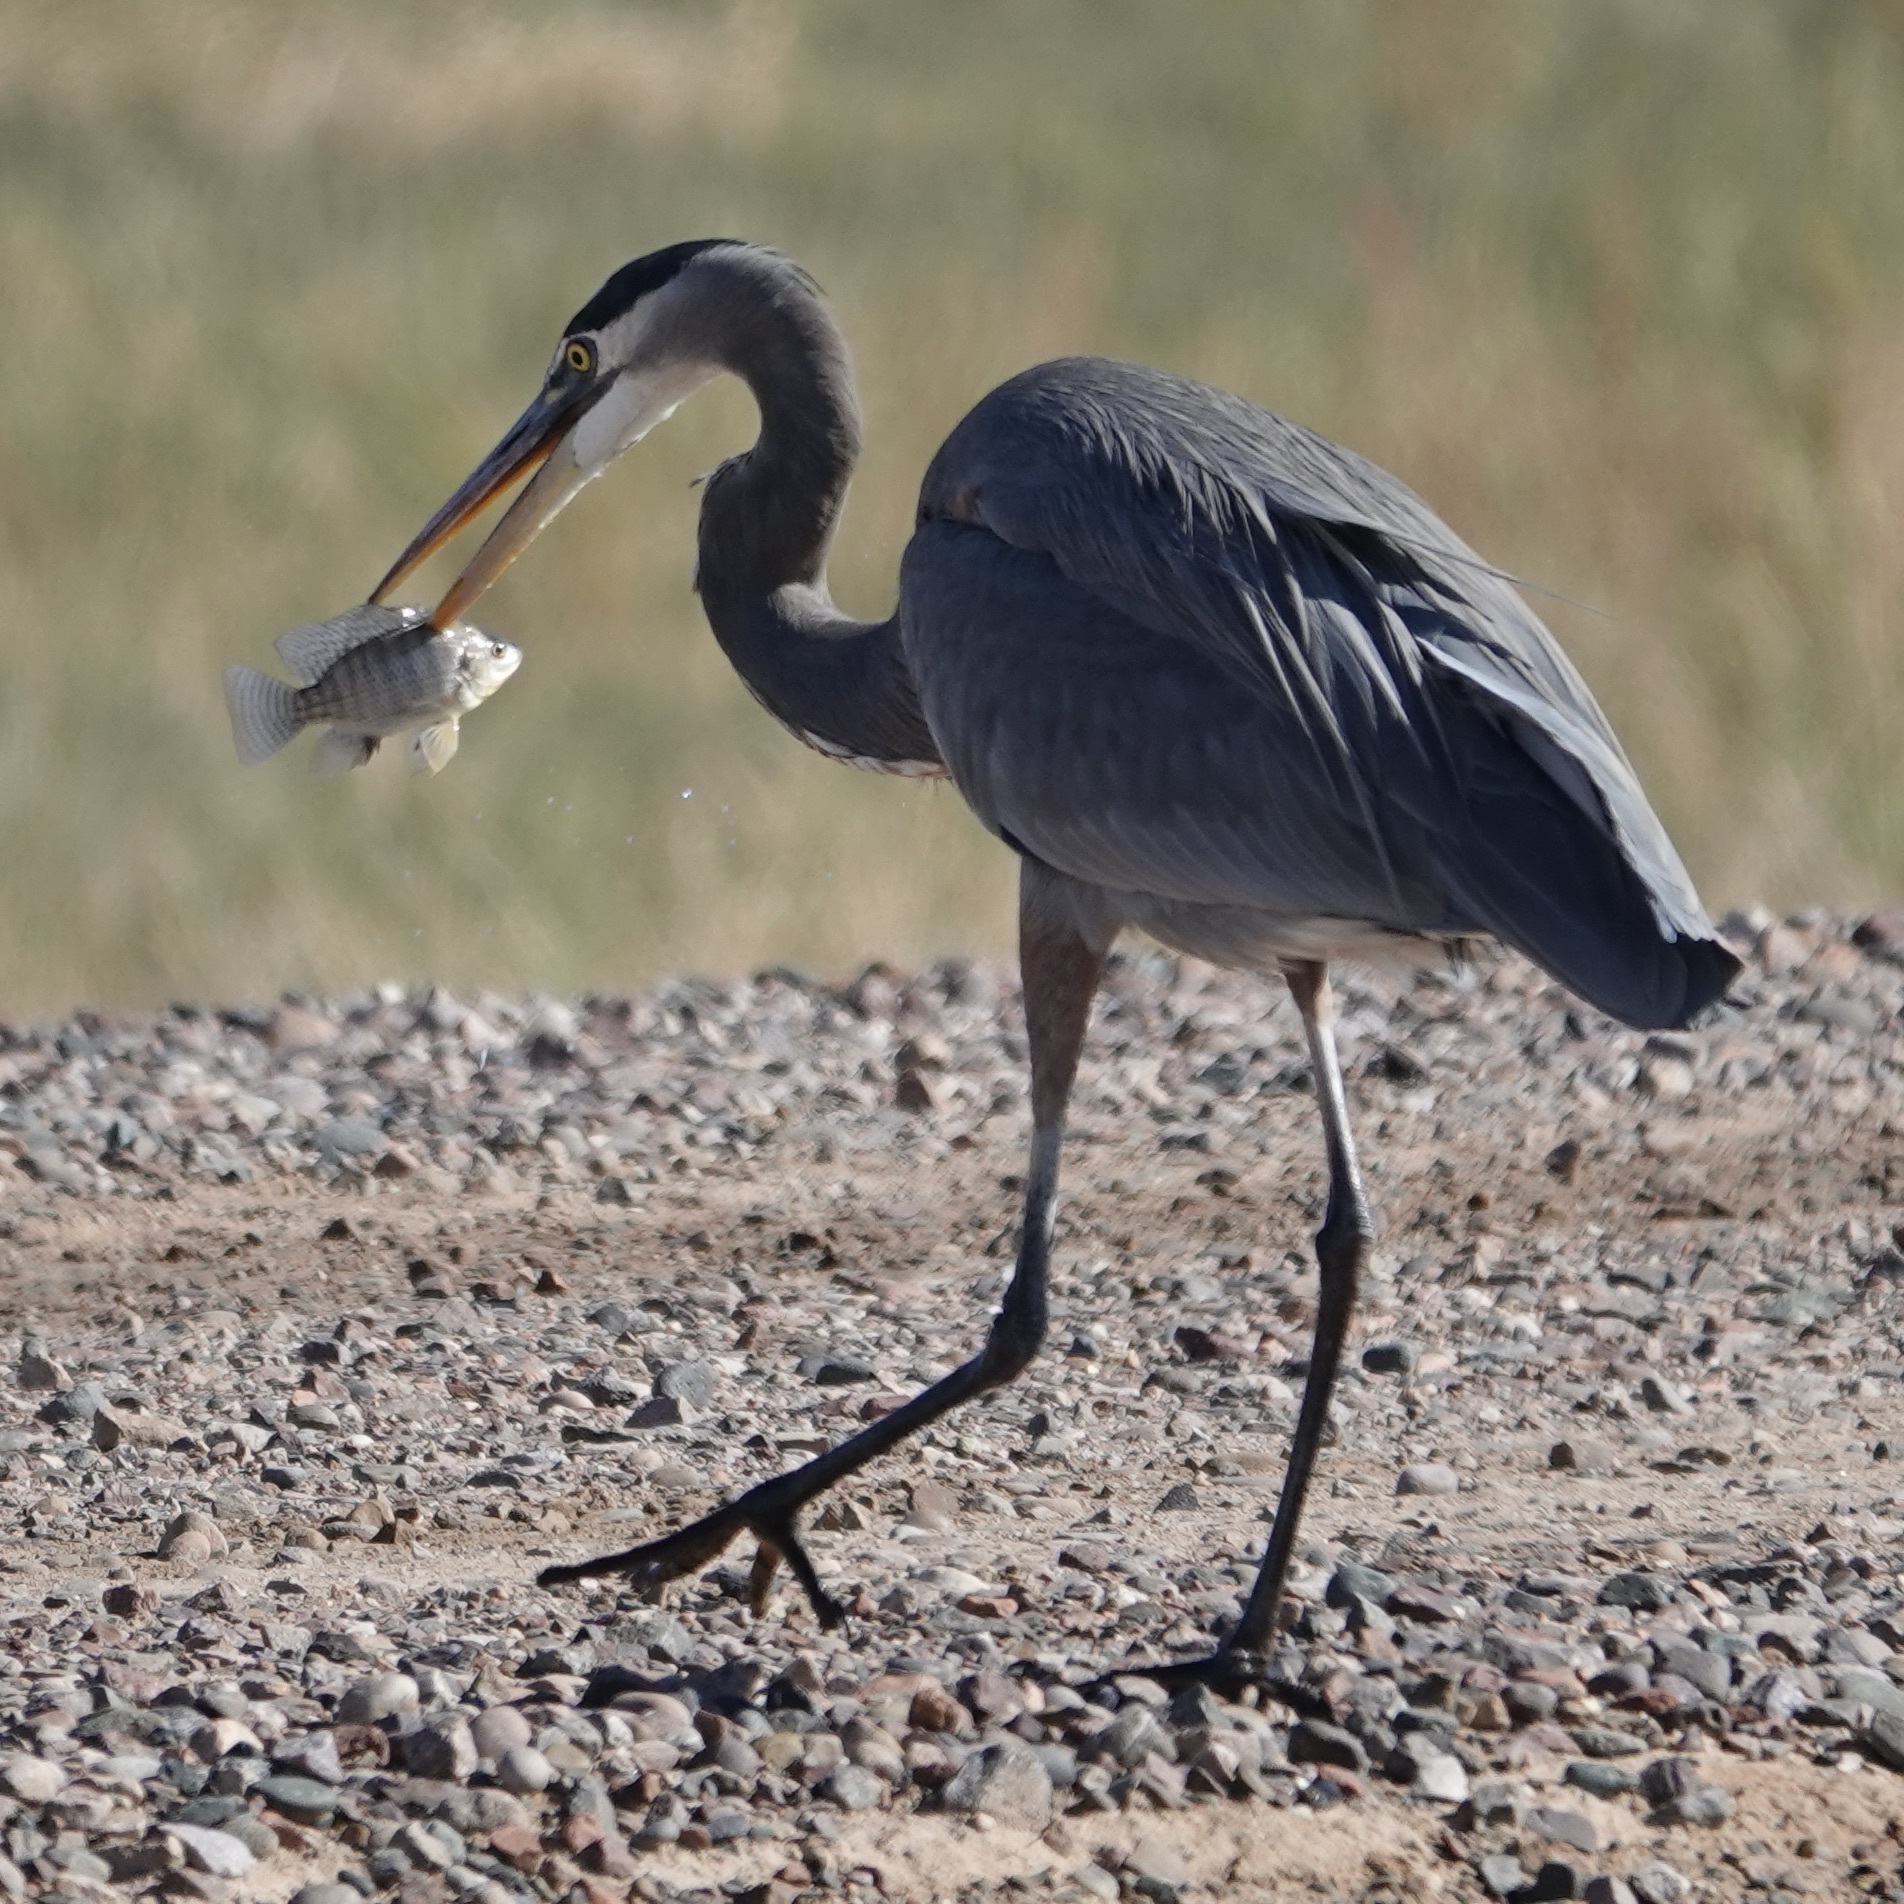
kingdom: Animalia
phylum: Chordata
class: Aves
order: Pelecaniformes
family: Ardeidae
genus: Ardea
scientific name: Ardea herodias
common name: Great blue heron
